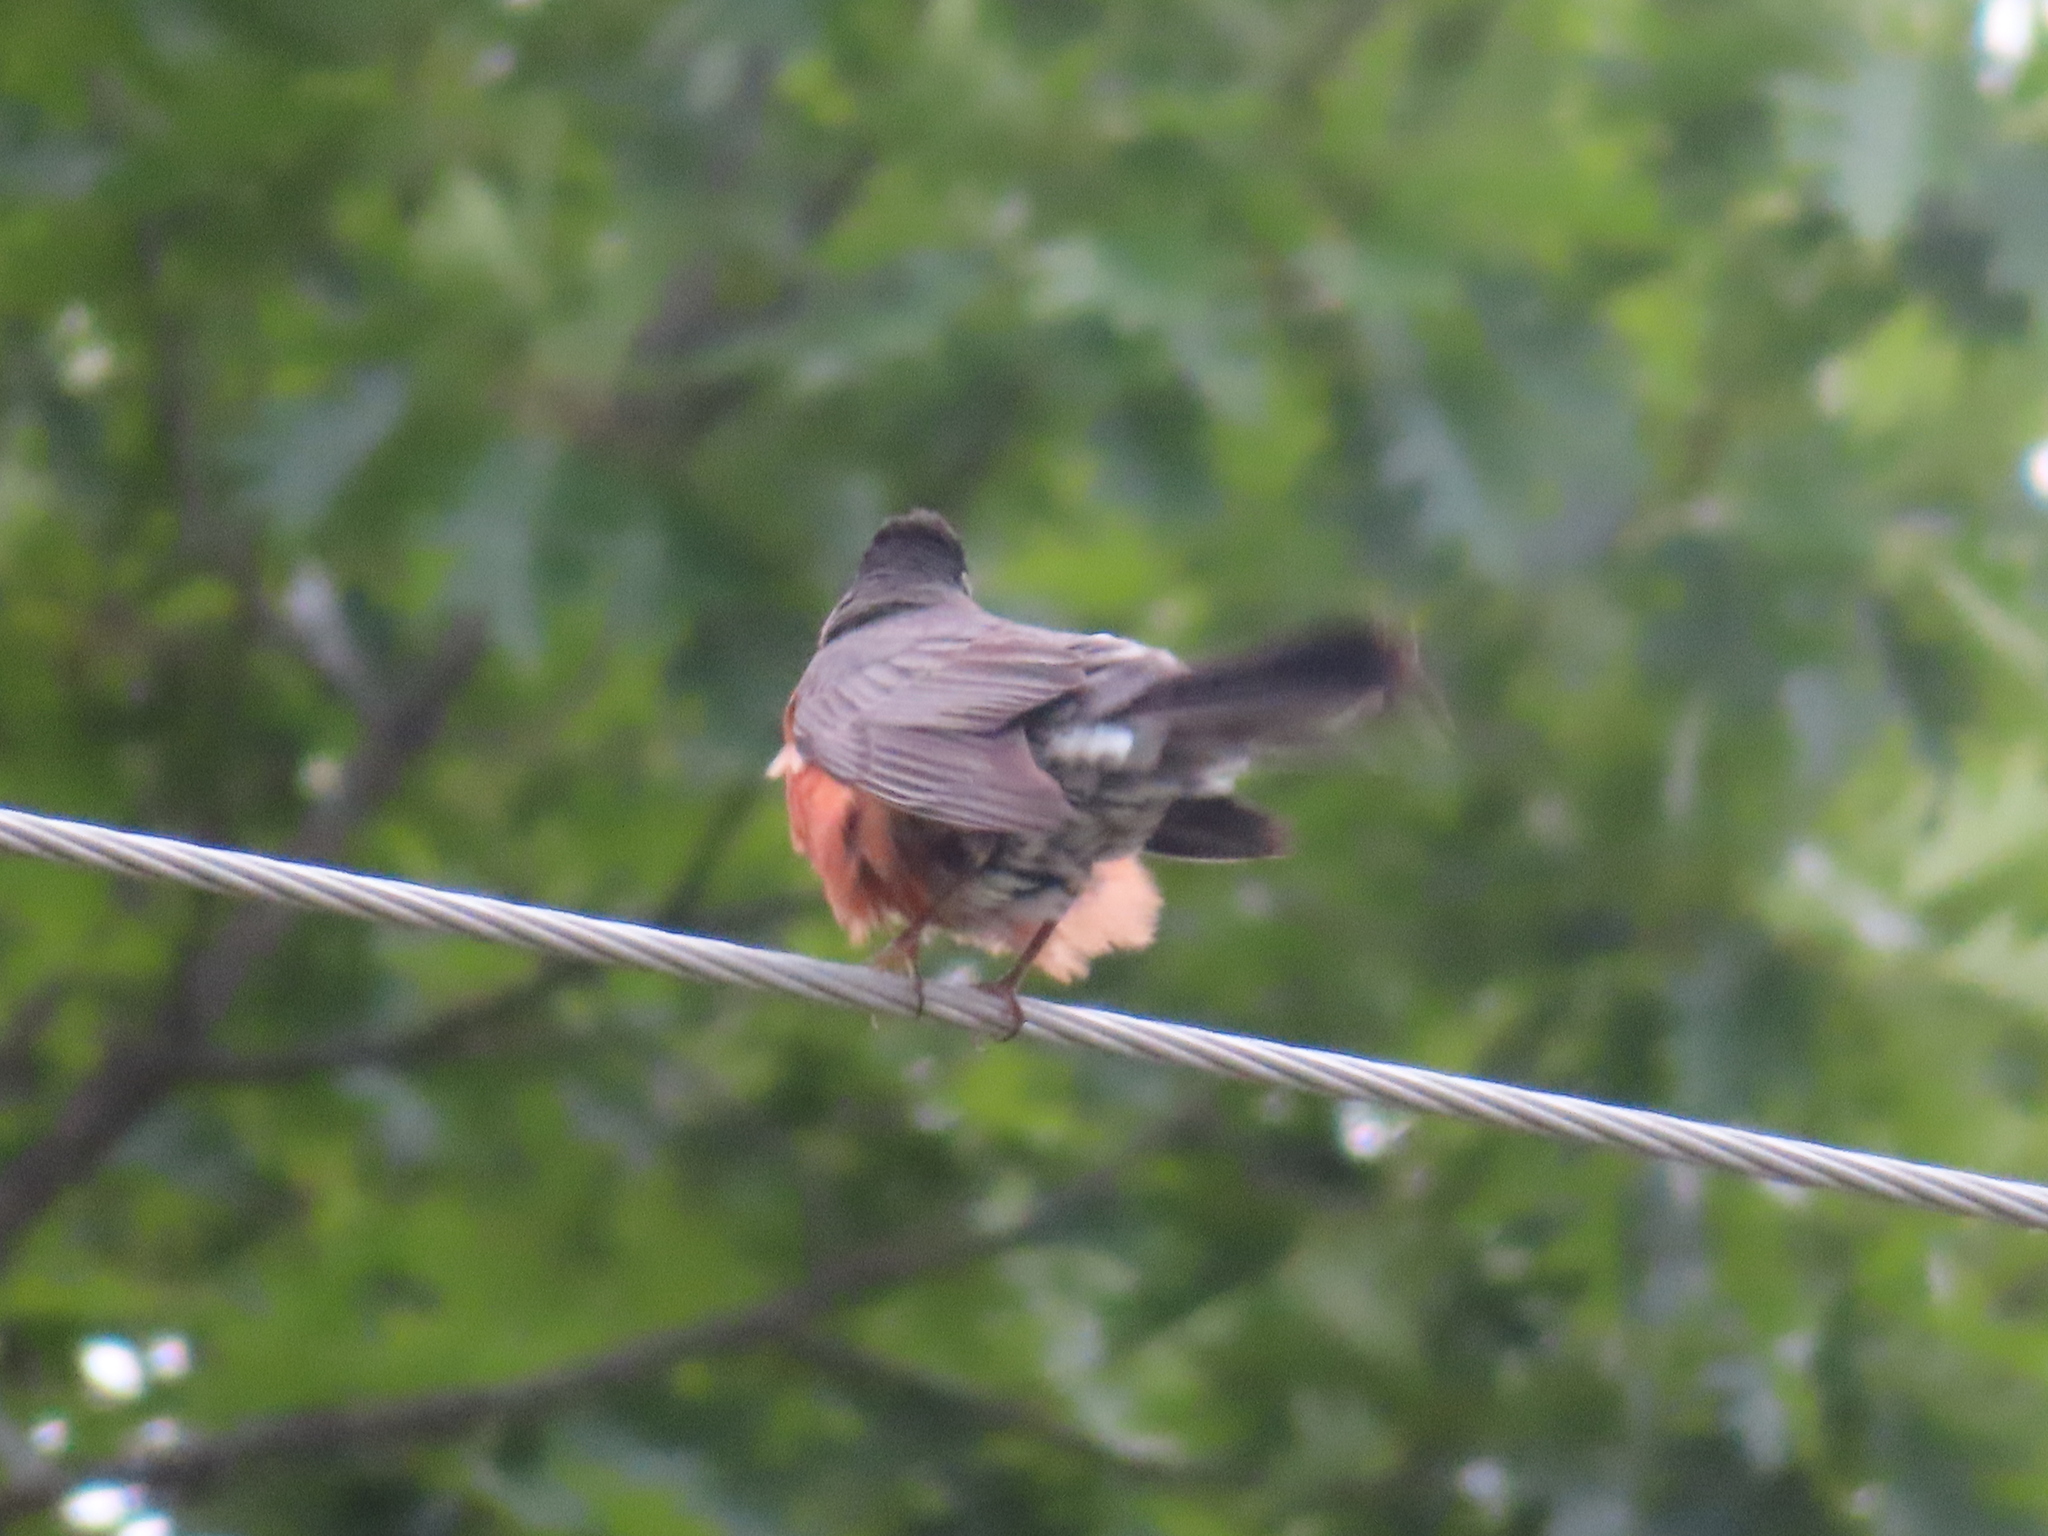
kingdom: Animalia
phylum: Chordata
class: Aves
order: Passeriformes
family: Turdidae
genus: Turdus
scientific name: Turdus migratorius
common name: American robin
